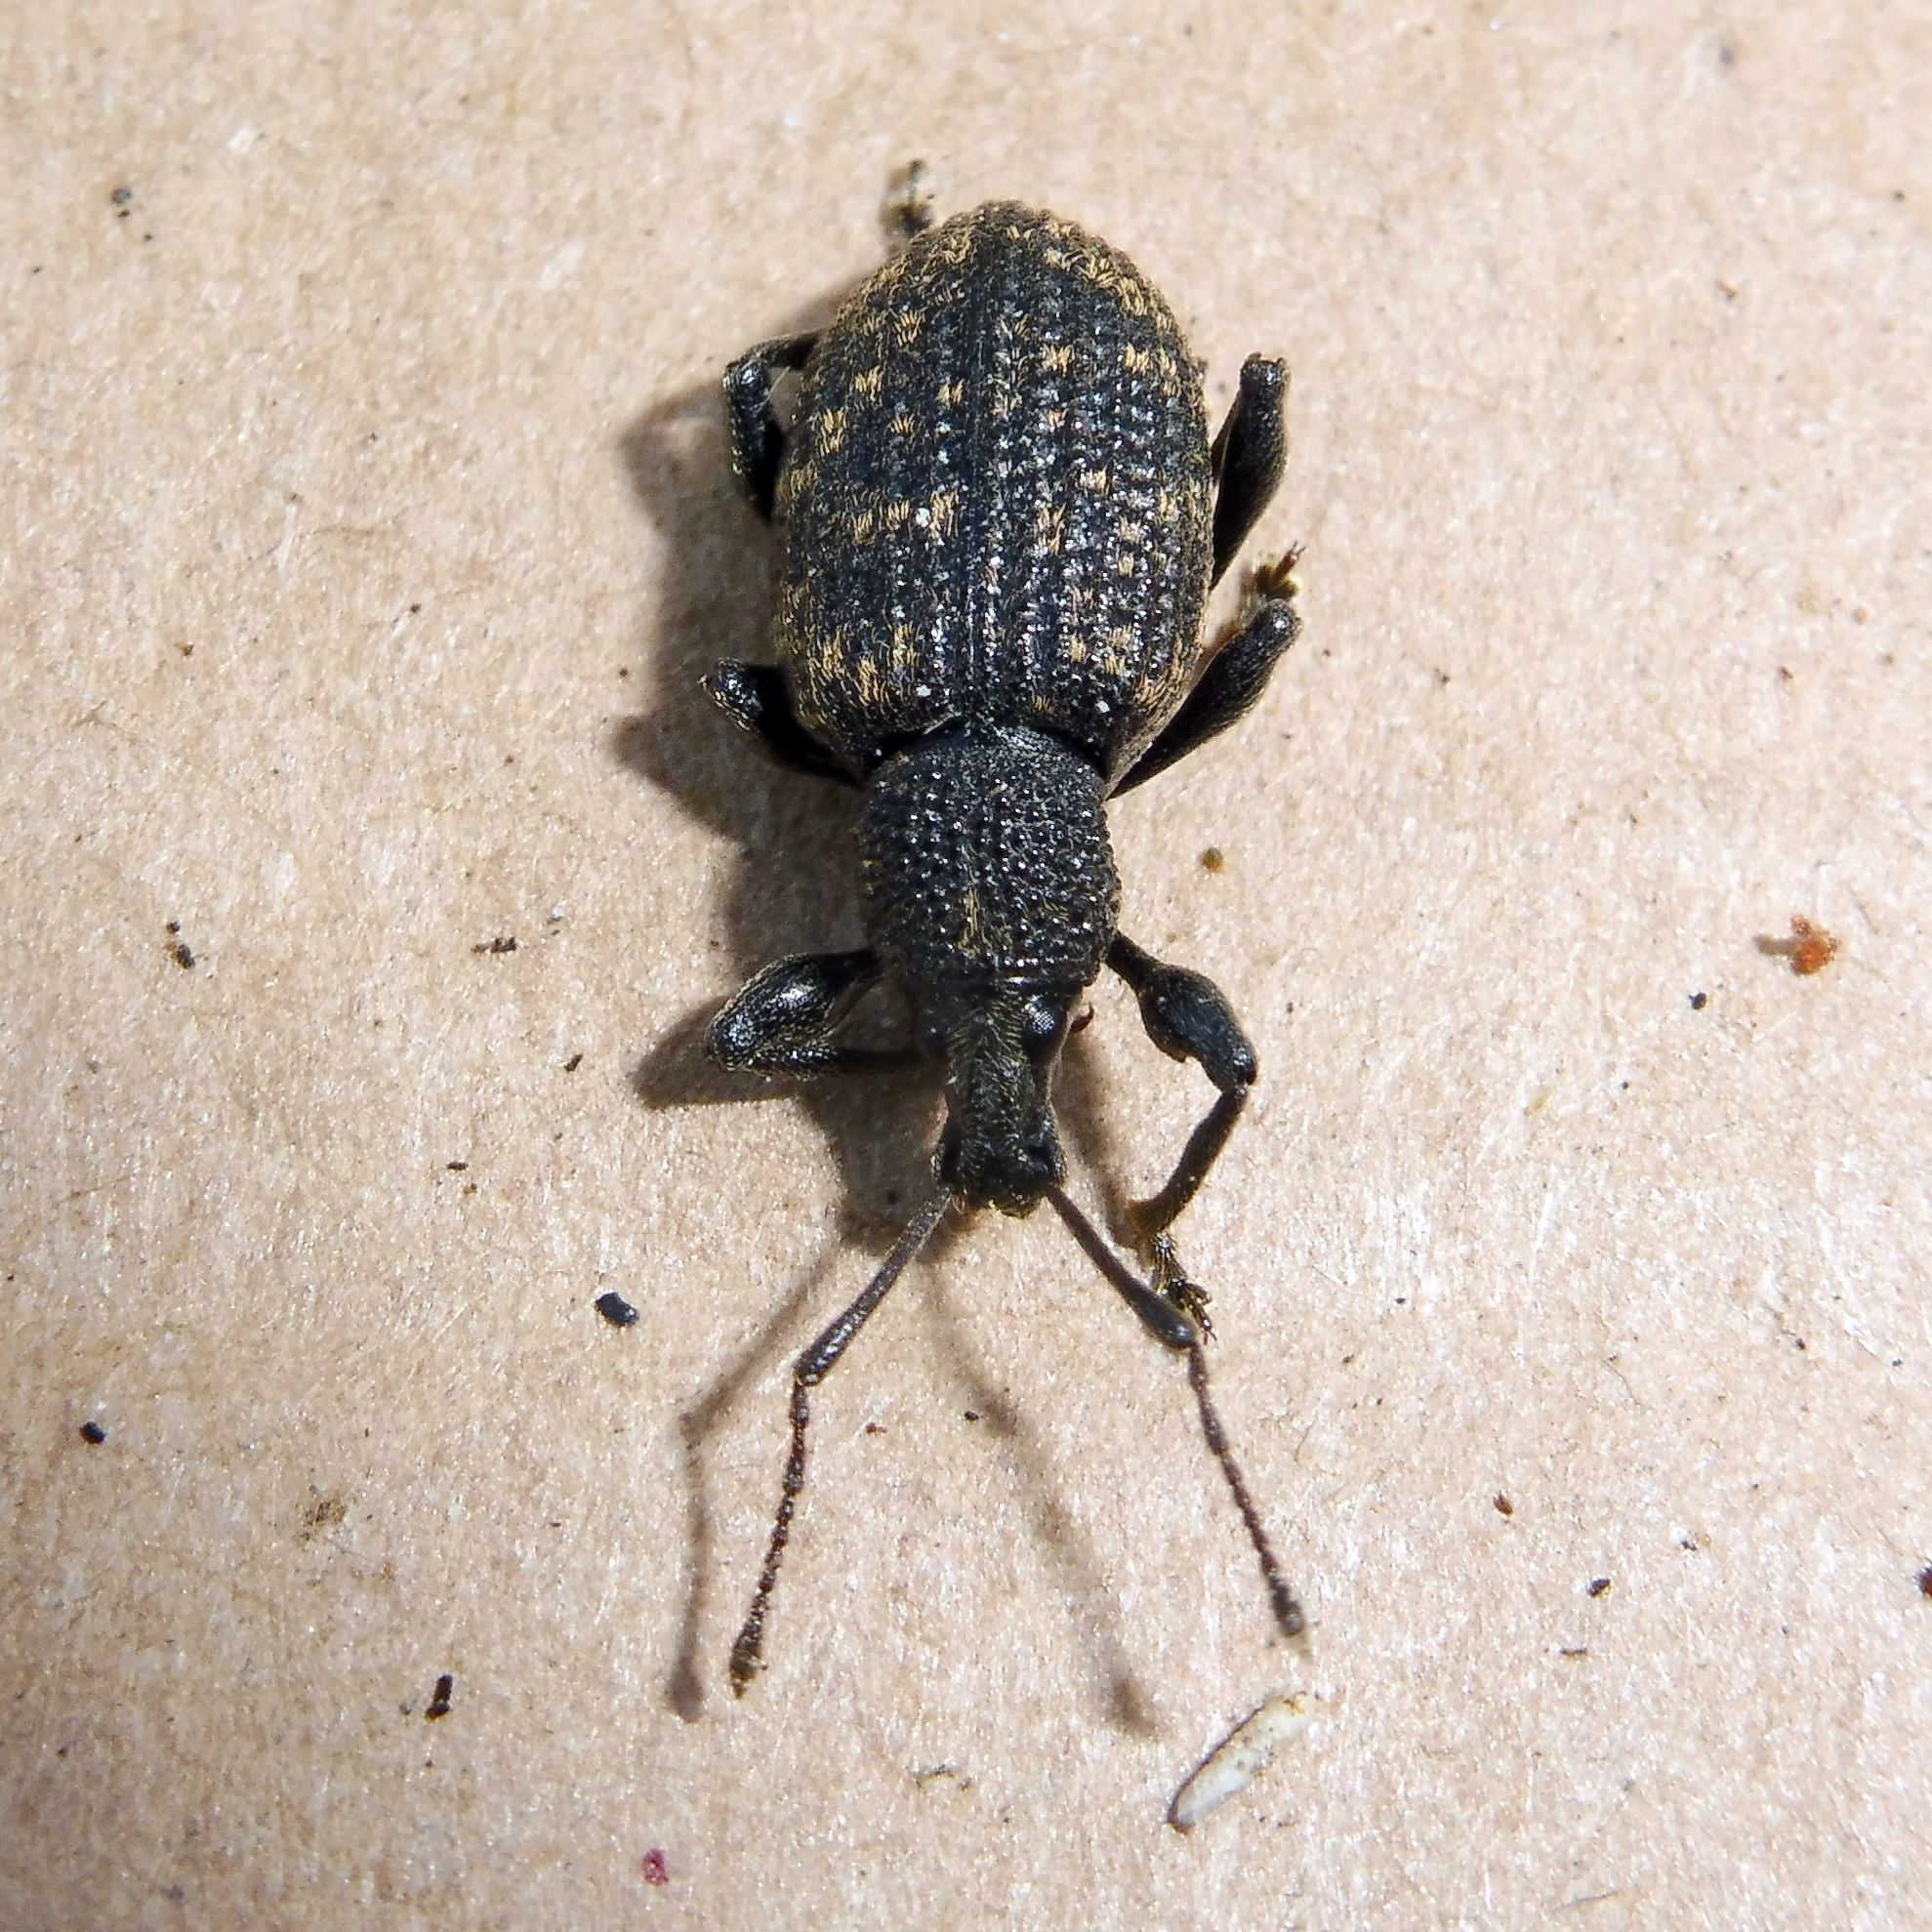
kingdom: Animalia
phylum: Arthropoda
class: Insecta
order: Coleoptera
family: Curculionidae
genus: Otiorhynchus
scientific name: Otiorhynchus sulcatus
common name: Black vine weevil
